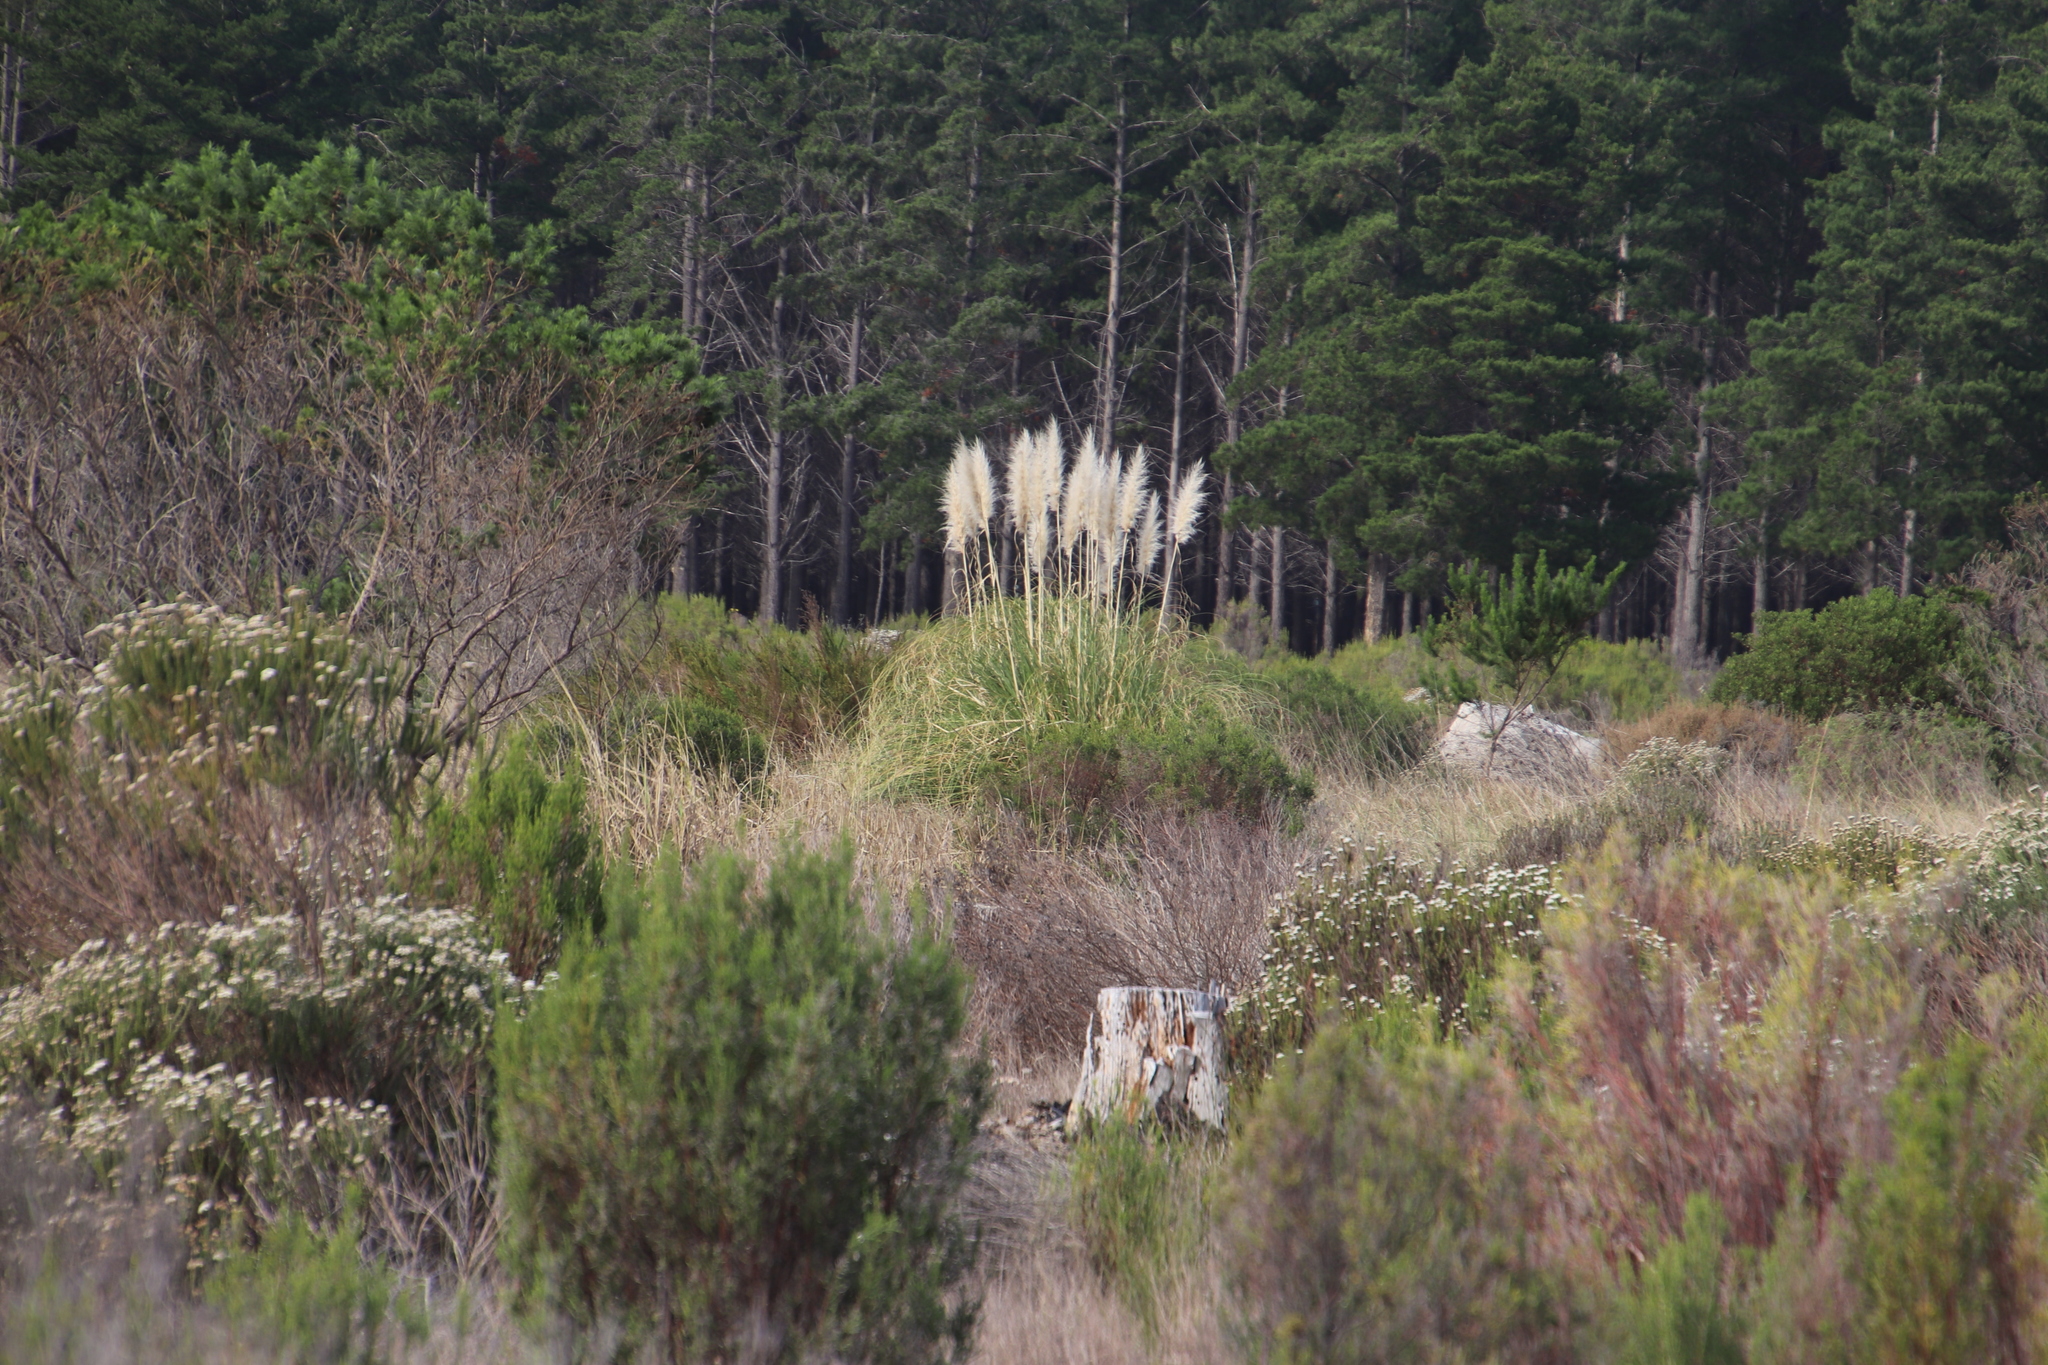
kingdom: Plantae
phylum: Tracheophyta
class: Liliopsida
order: Poales
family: Poaceae
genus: Cortaderia
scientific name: Cortaderia selloana
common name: Uruguayan pampas grass
